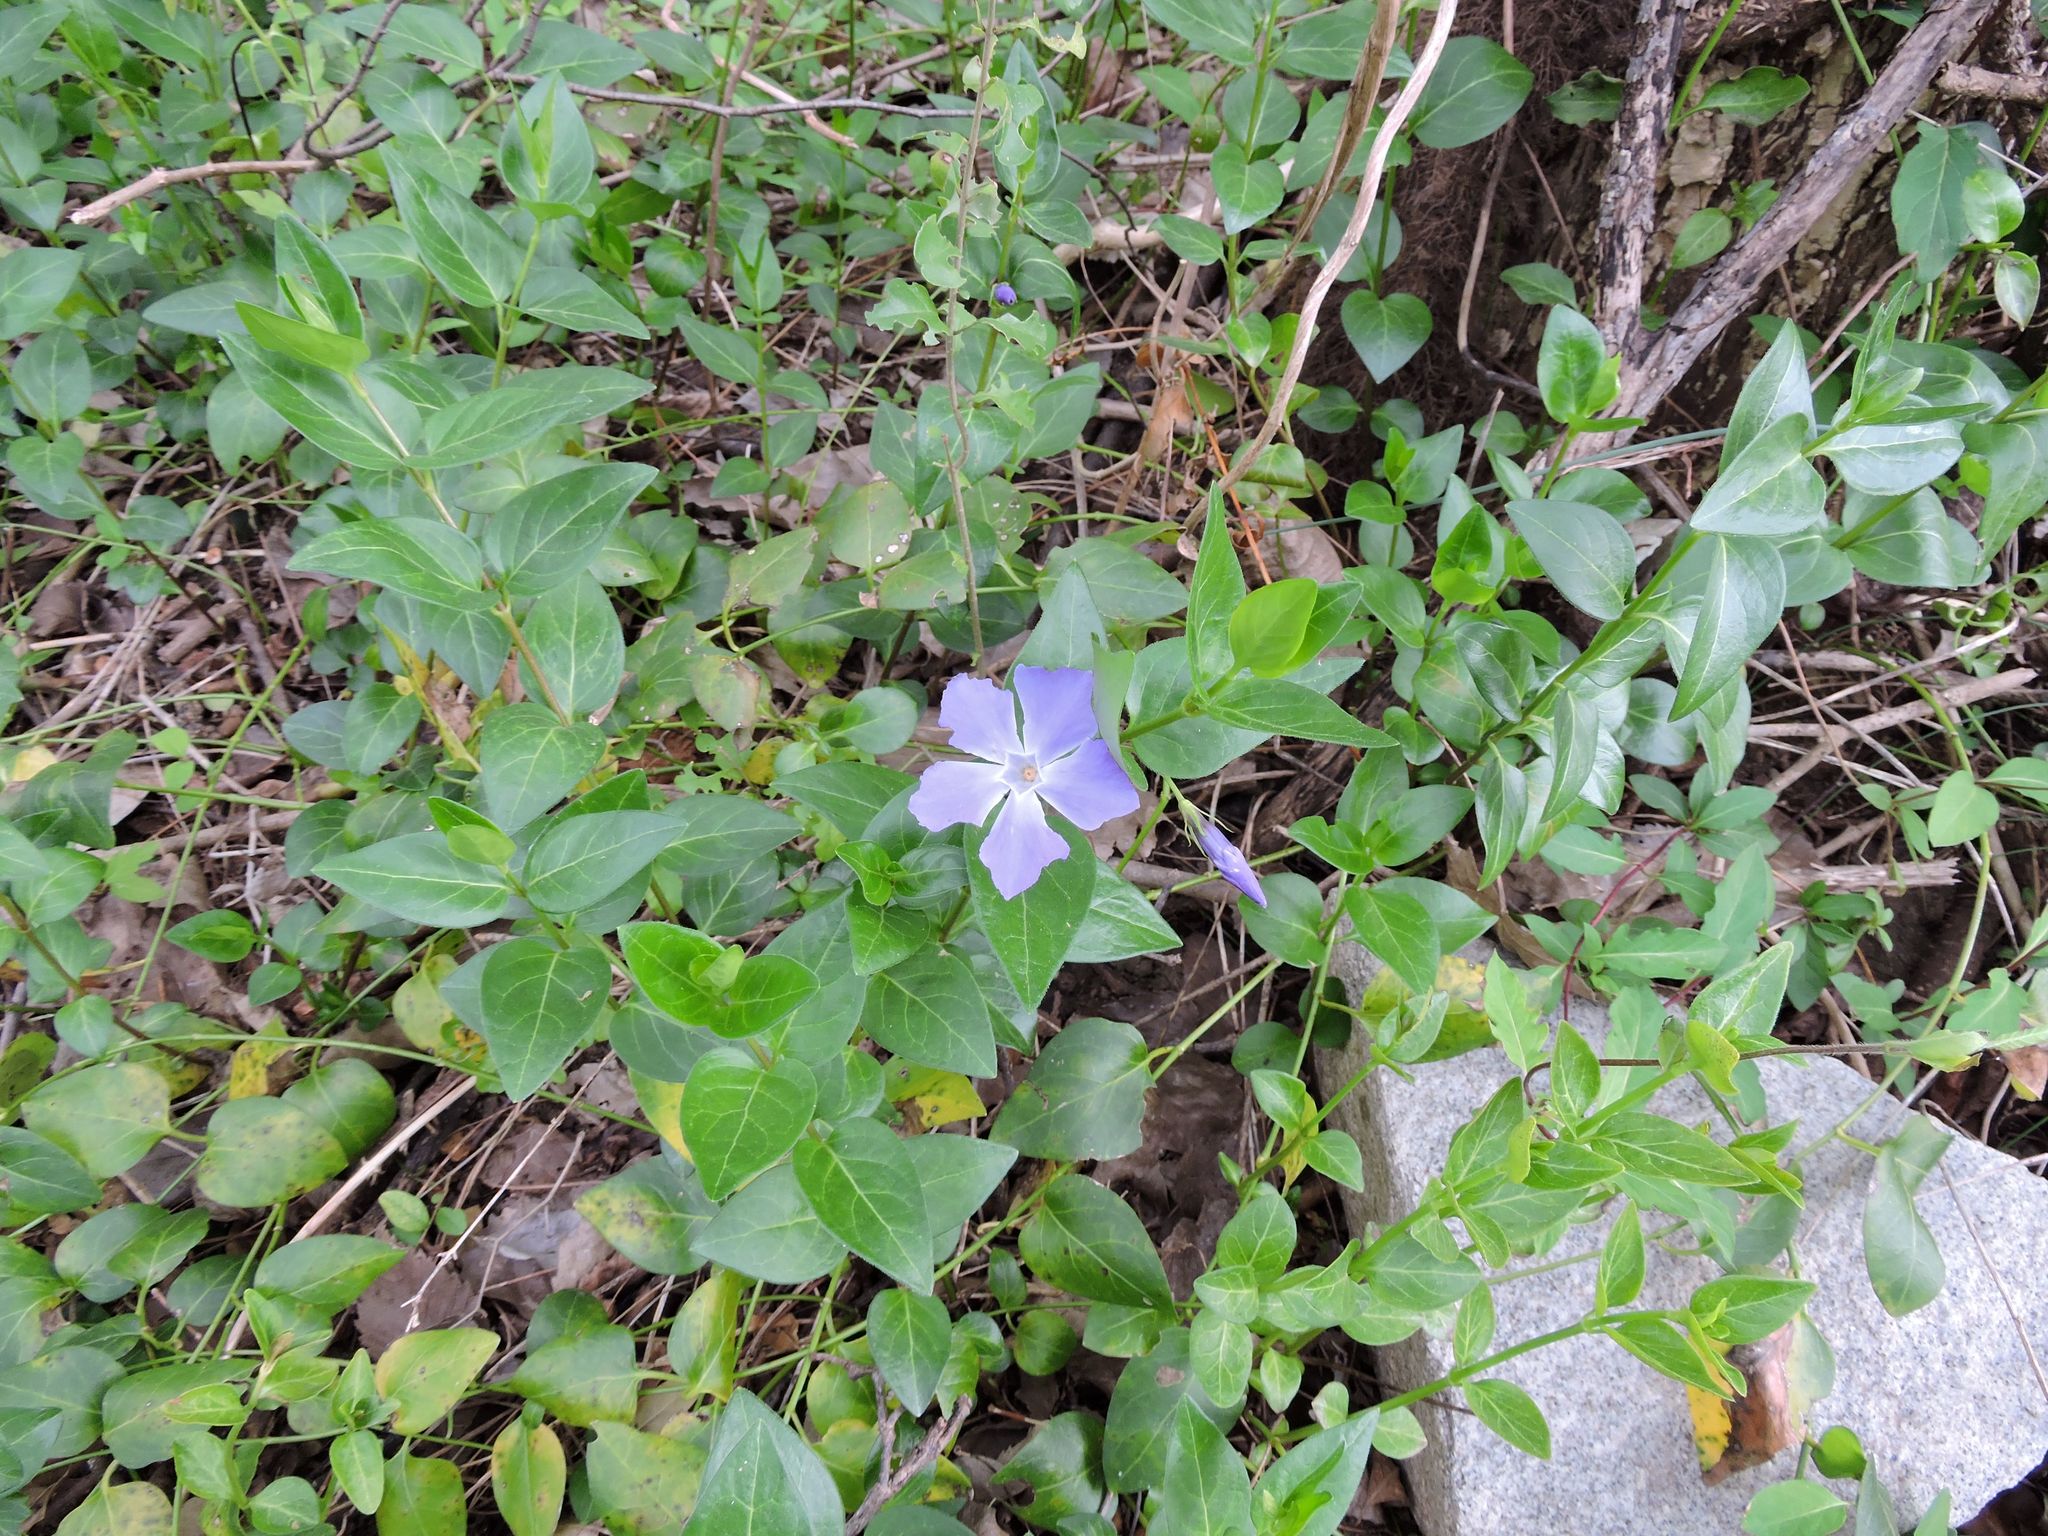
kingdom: Plantae
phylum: Tracheophyta
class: Magnoliopsida
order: Gentianales
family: Apocynaceae
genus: Vinca
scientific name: Vinca major
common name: Greater periwinkle
